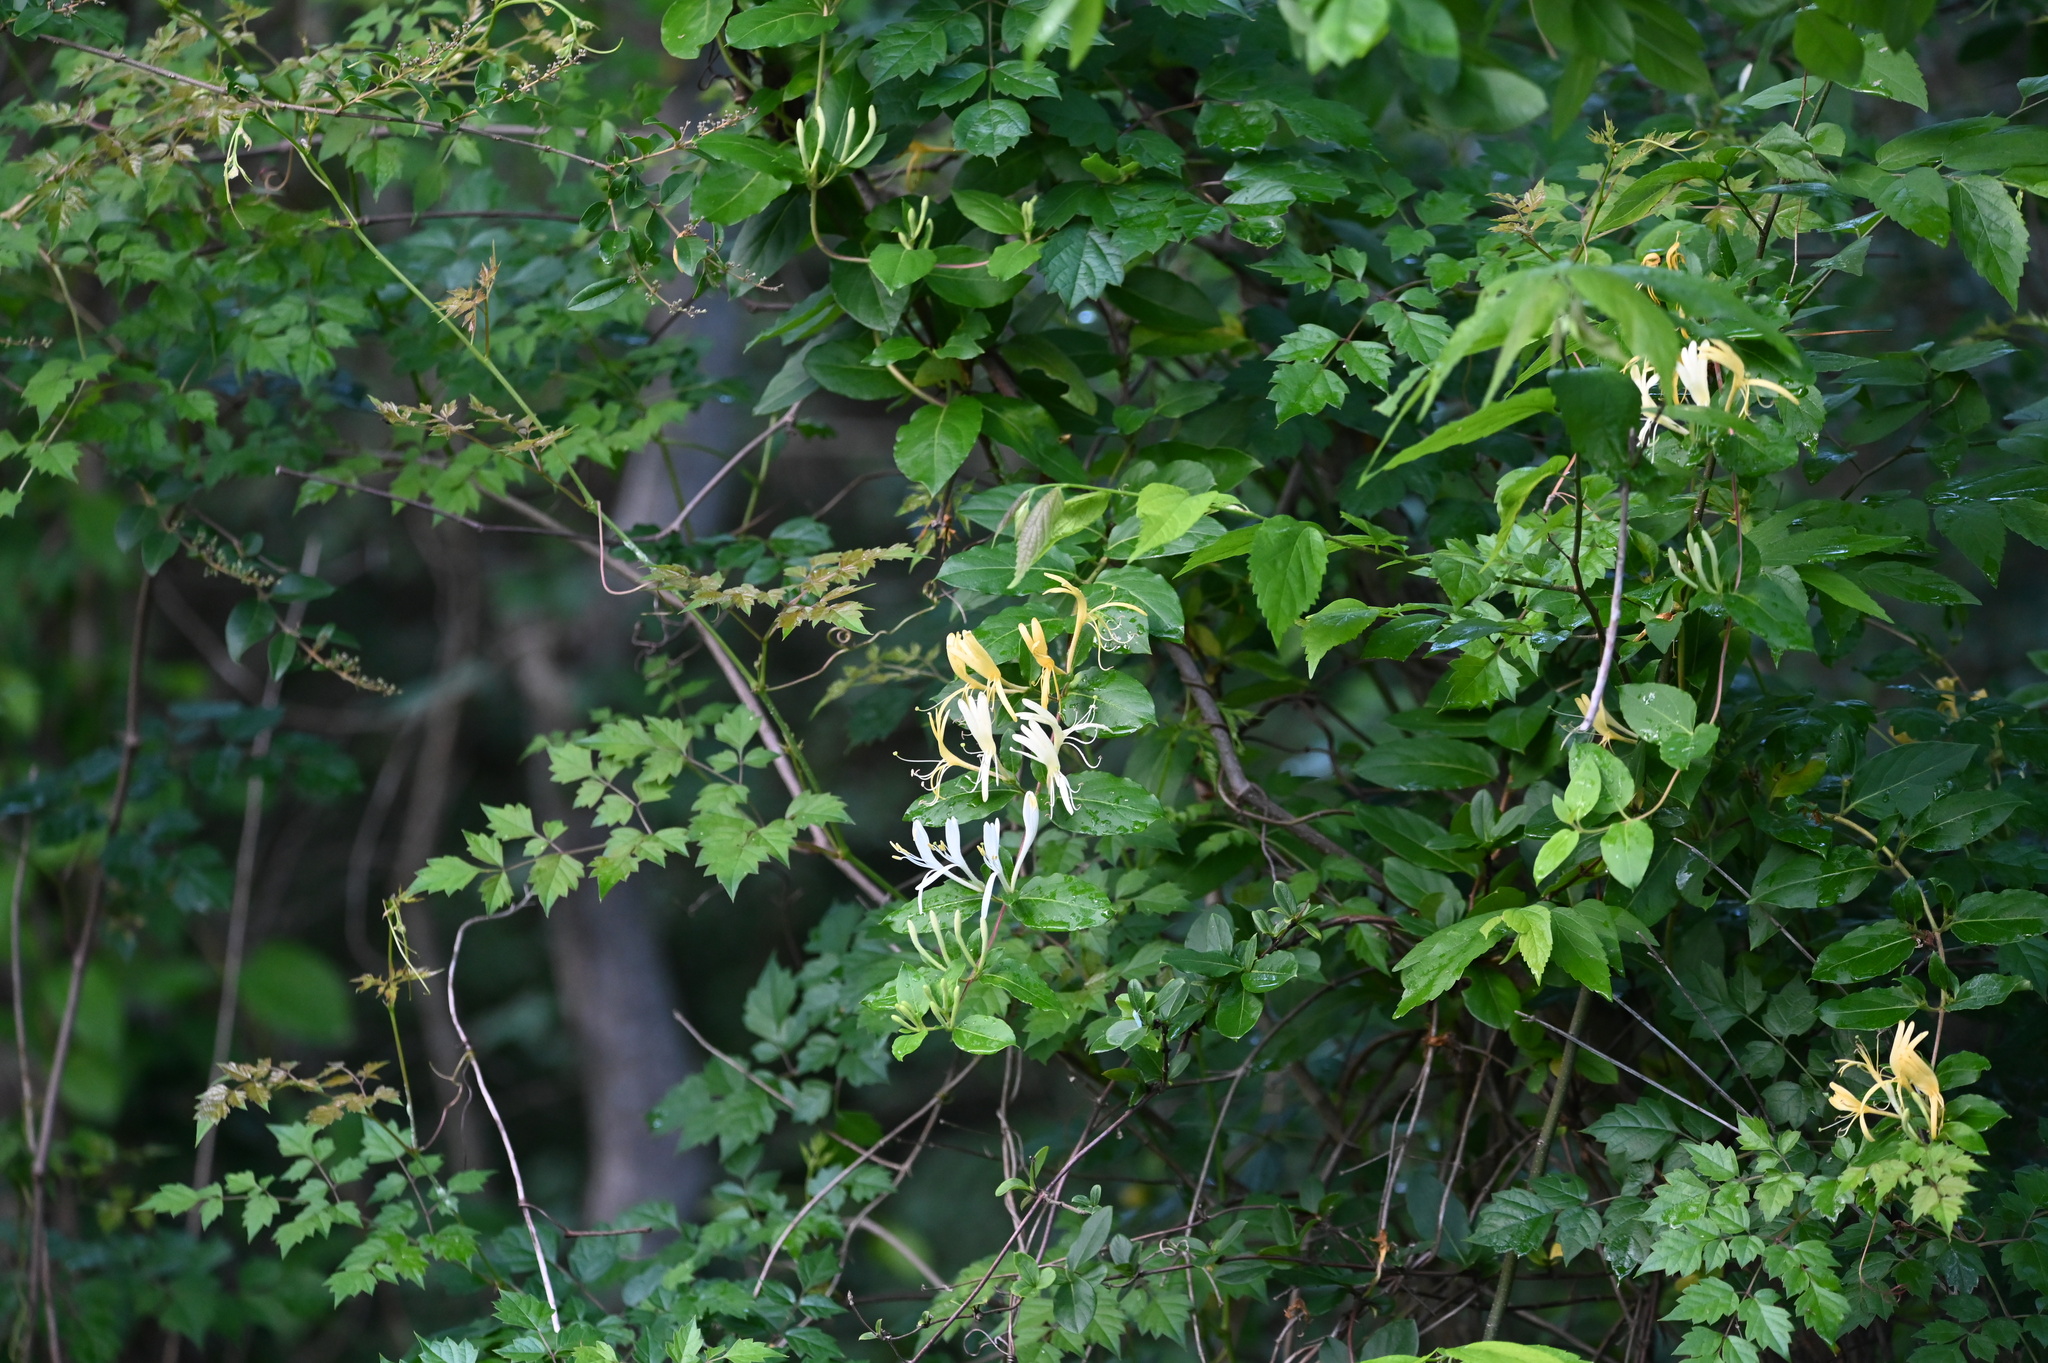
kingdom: Plantae
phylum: Tracheophyta
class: Magnoliopsida
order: Dipsacales
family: Caprifoliaceae
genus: Lonicera
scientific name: Lonicera japonica
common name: Japanese honeysuckle
